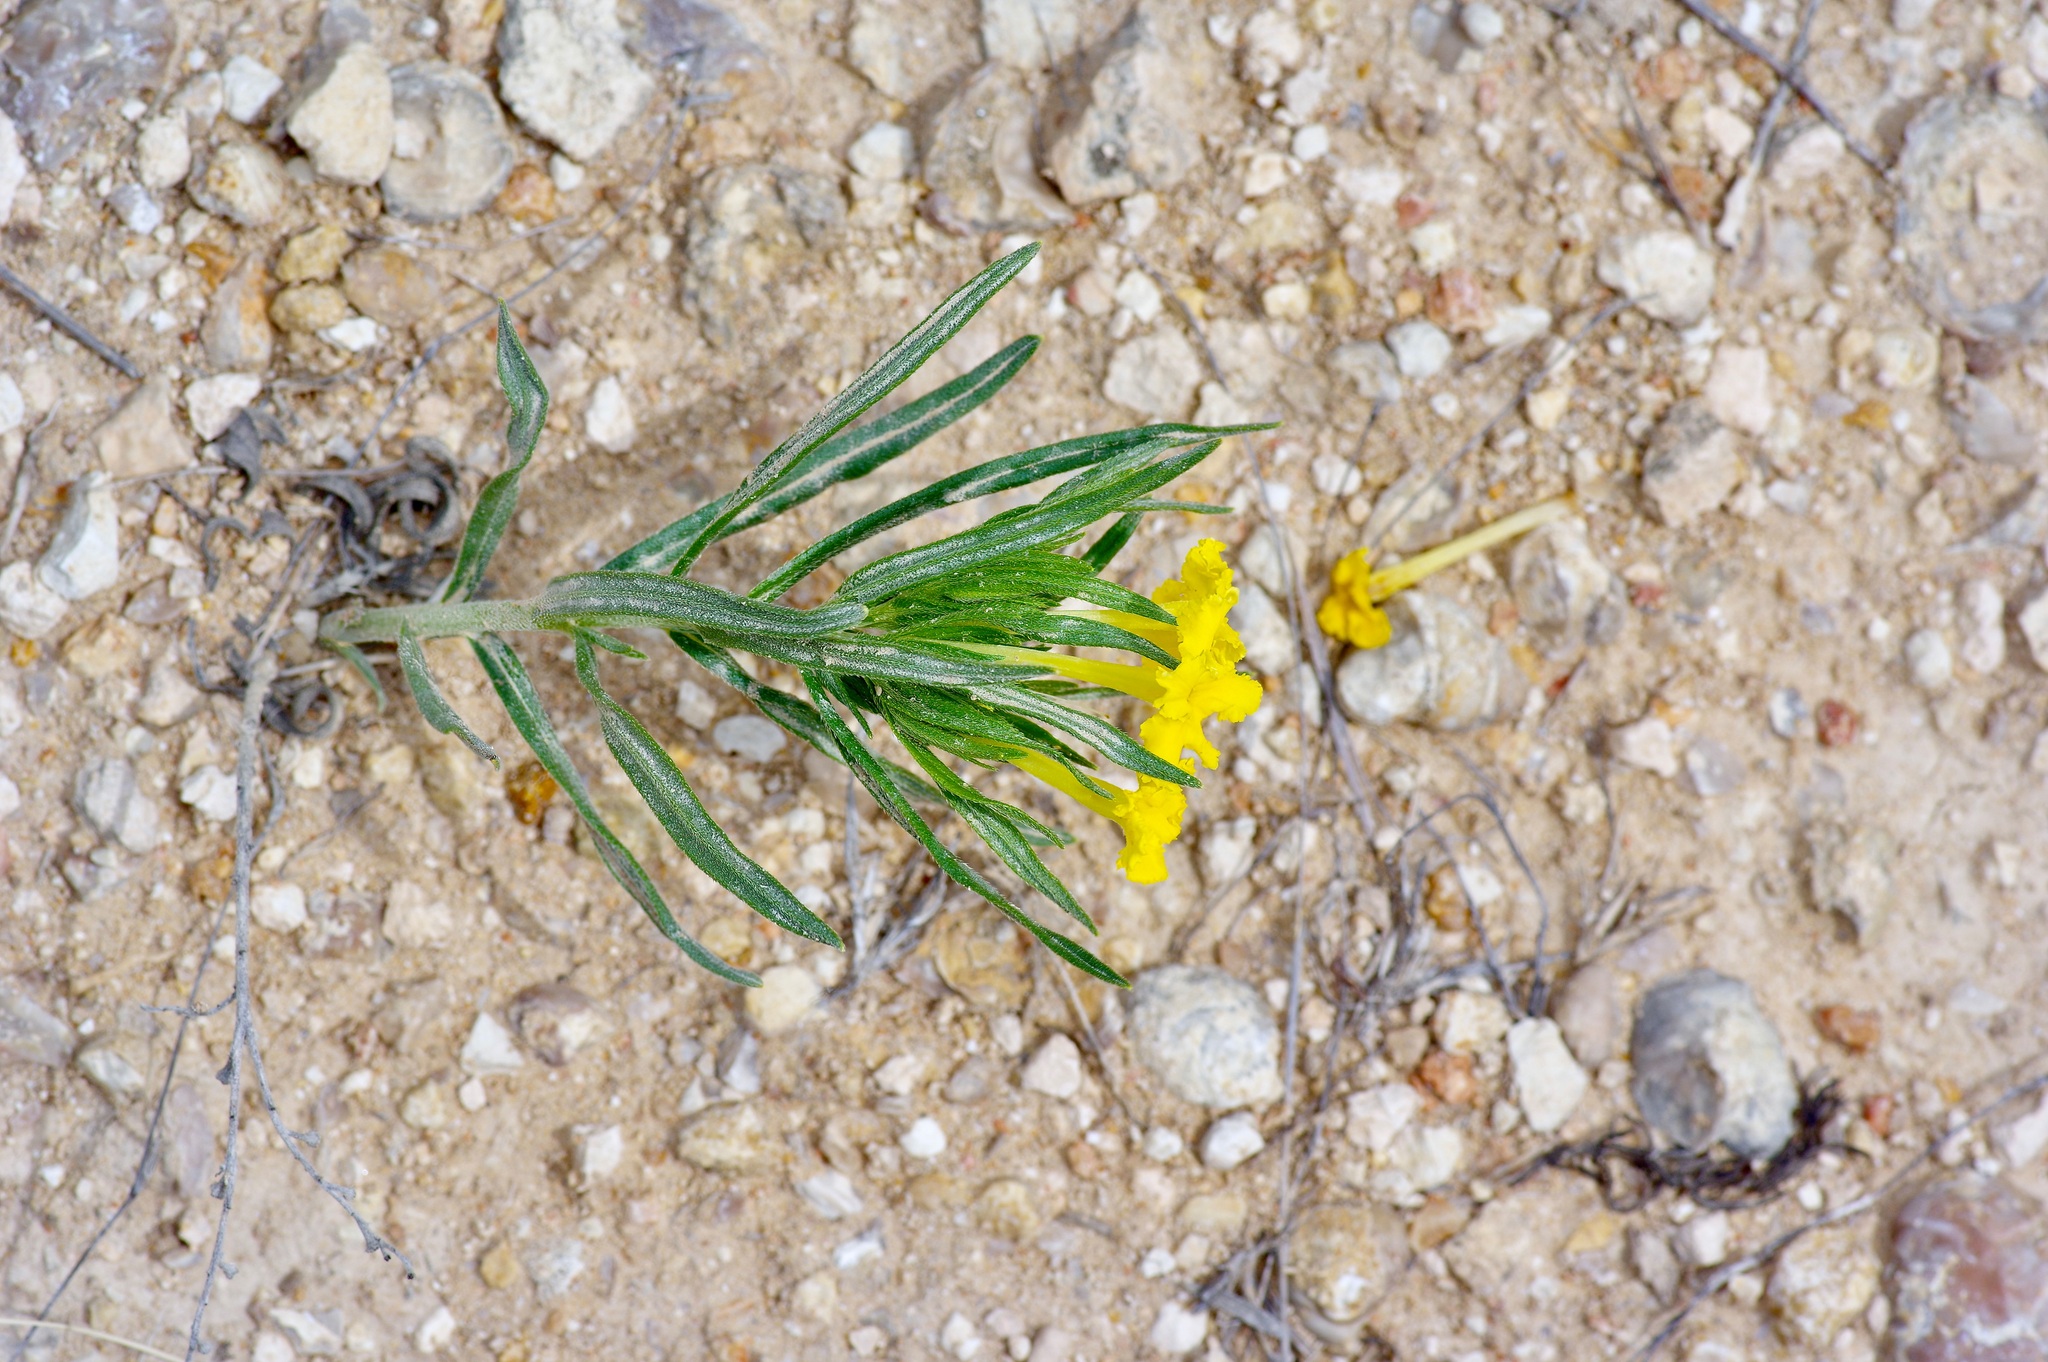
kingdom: Plantae
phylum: Tracheophyta
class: Magnoliopsida
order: Boraginales
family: Boraginaceae
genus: Lithospermum
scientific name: Lithospermum incisum
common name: Fringed gromwell
